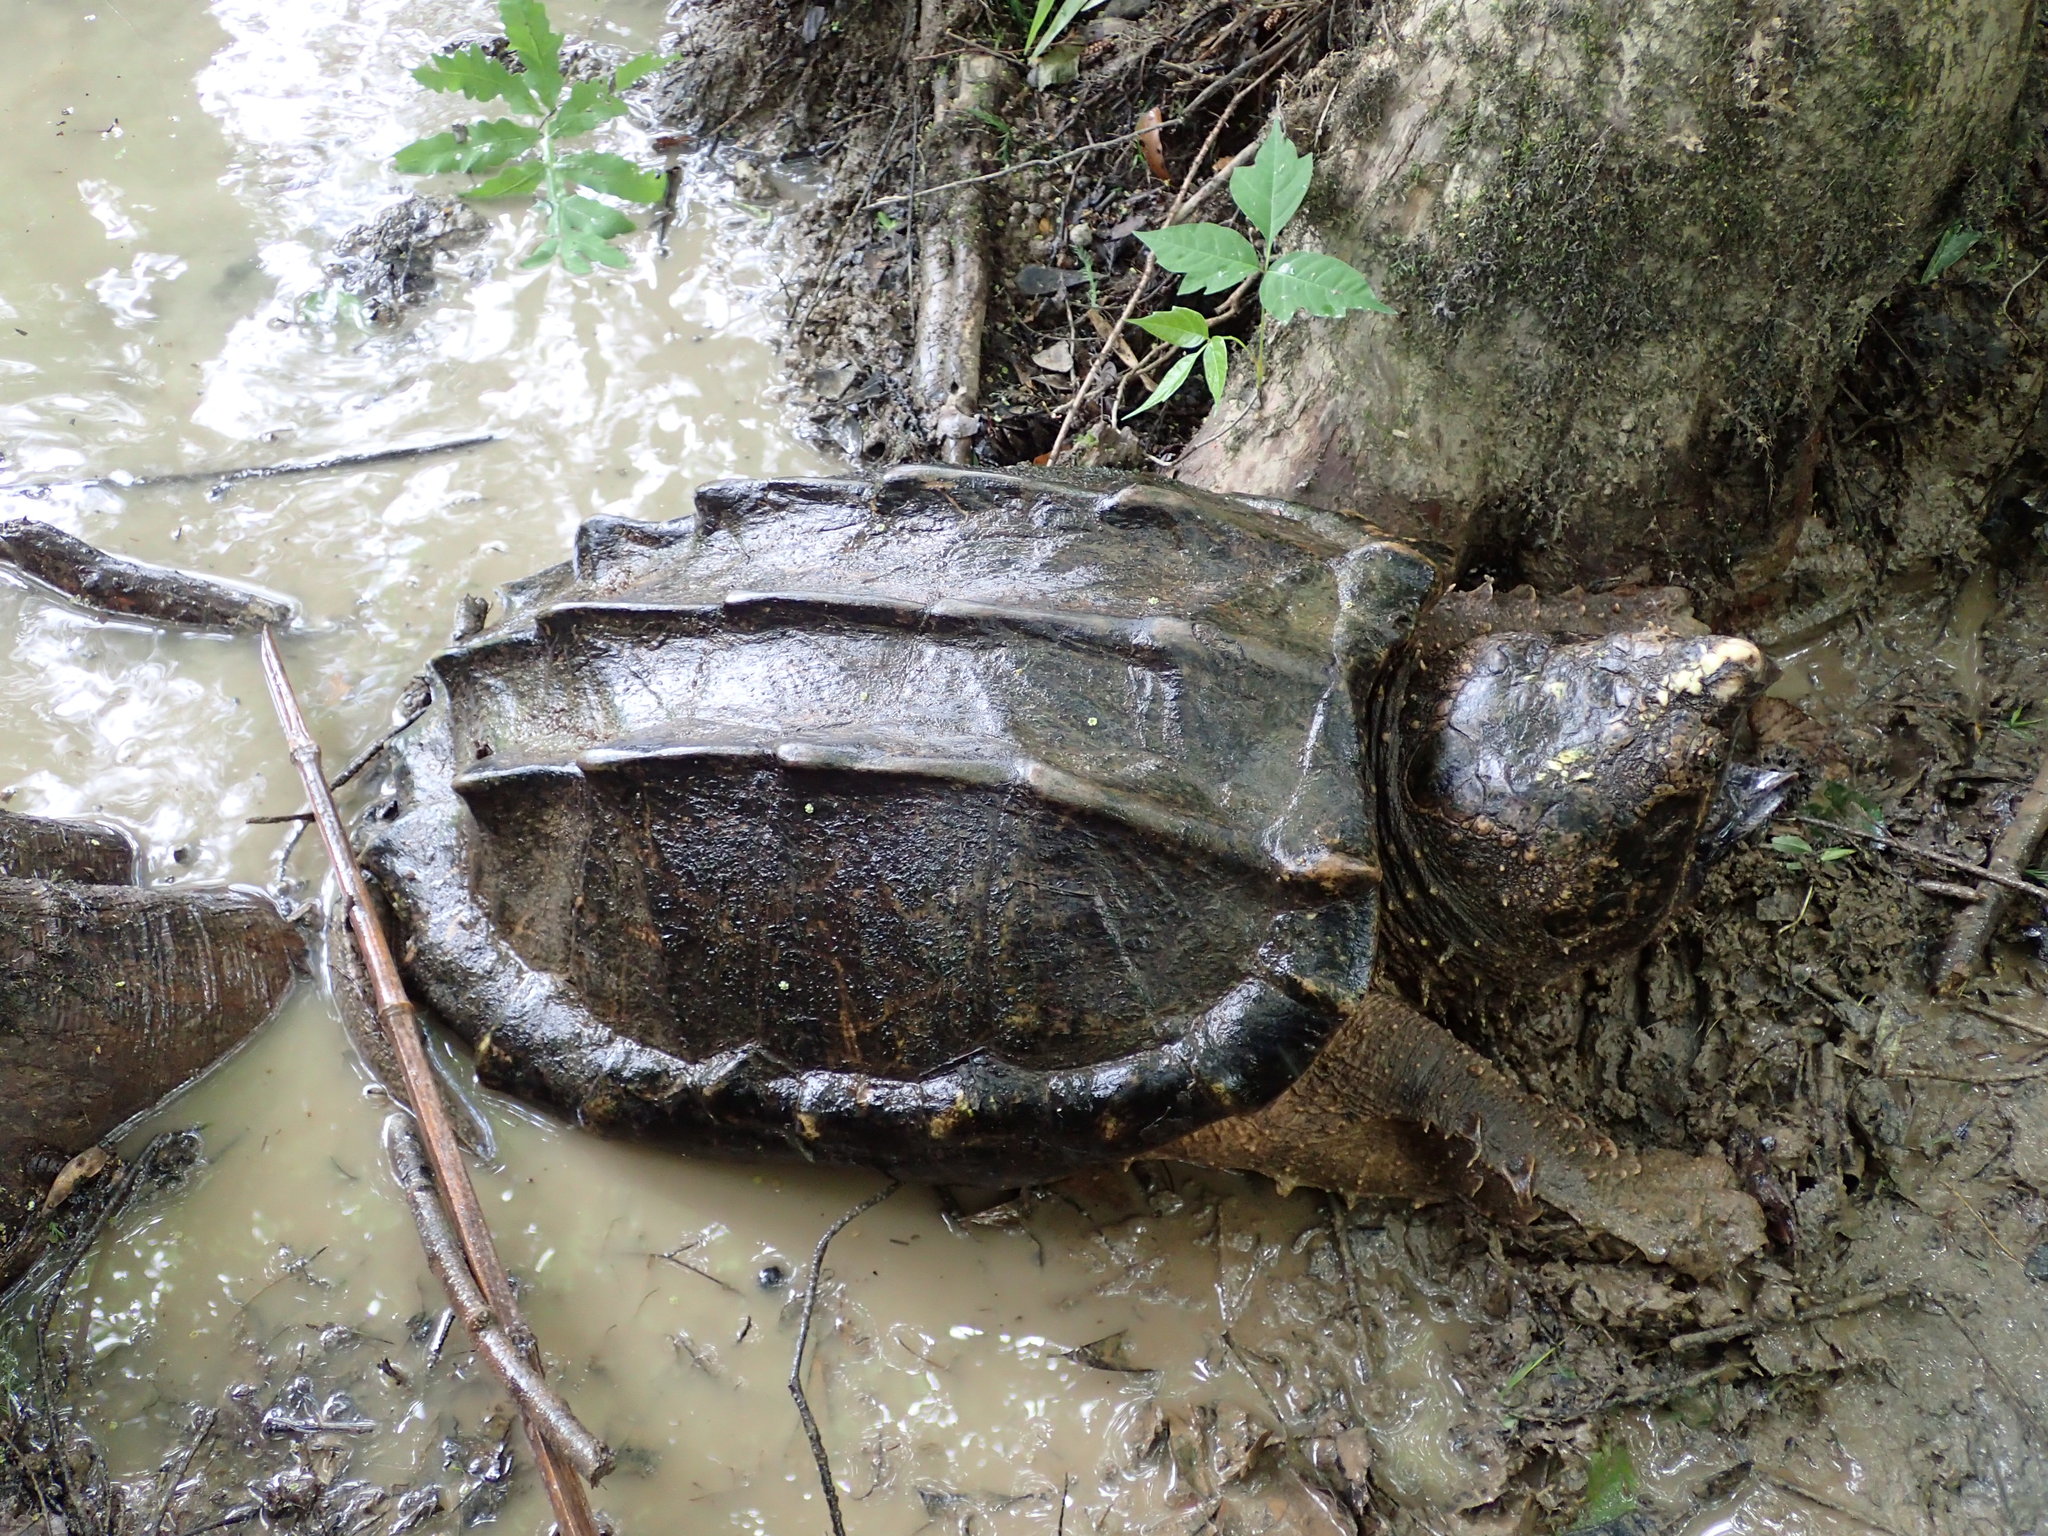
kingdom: Animalia
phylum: Chordata
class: Testudines
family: Chelydridae
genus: Macrochelys
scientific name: Macrochelys temminckii
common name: Alligator snapping turtle
